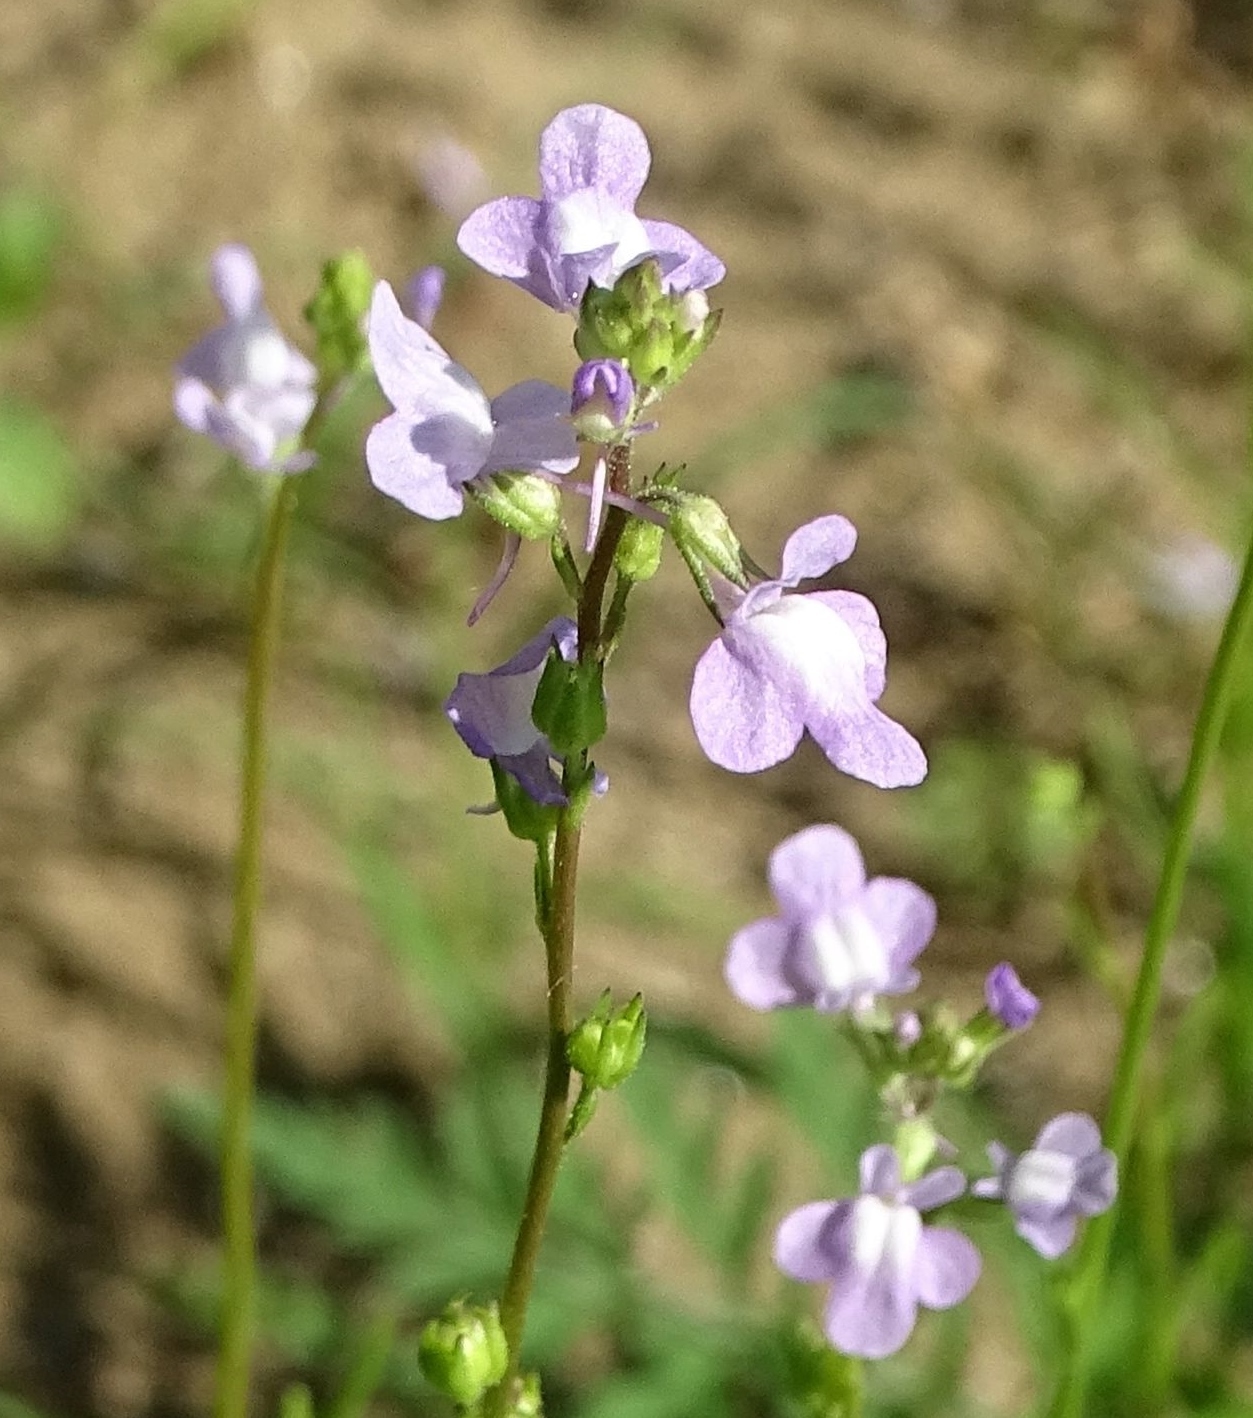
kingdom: Plantae
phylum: Tracheophyta
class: Magnoliopsida
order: Lamiales
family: Plantaginaceae
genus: Nuttallanthus
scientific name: Nuttallanthus canadensis
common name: Blue toadflax
